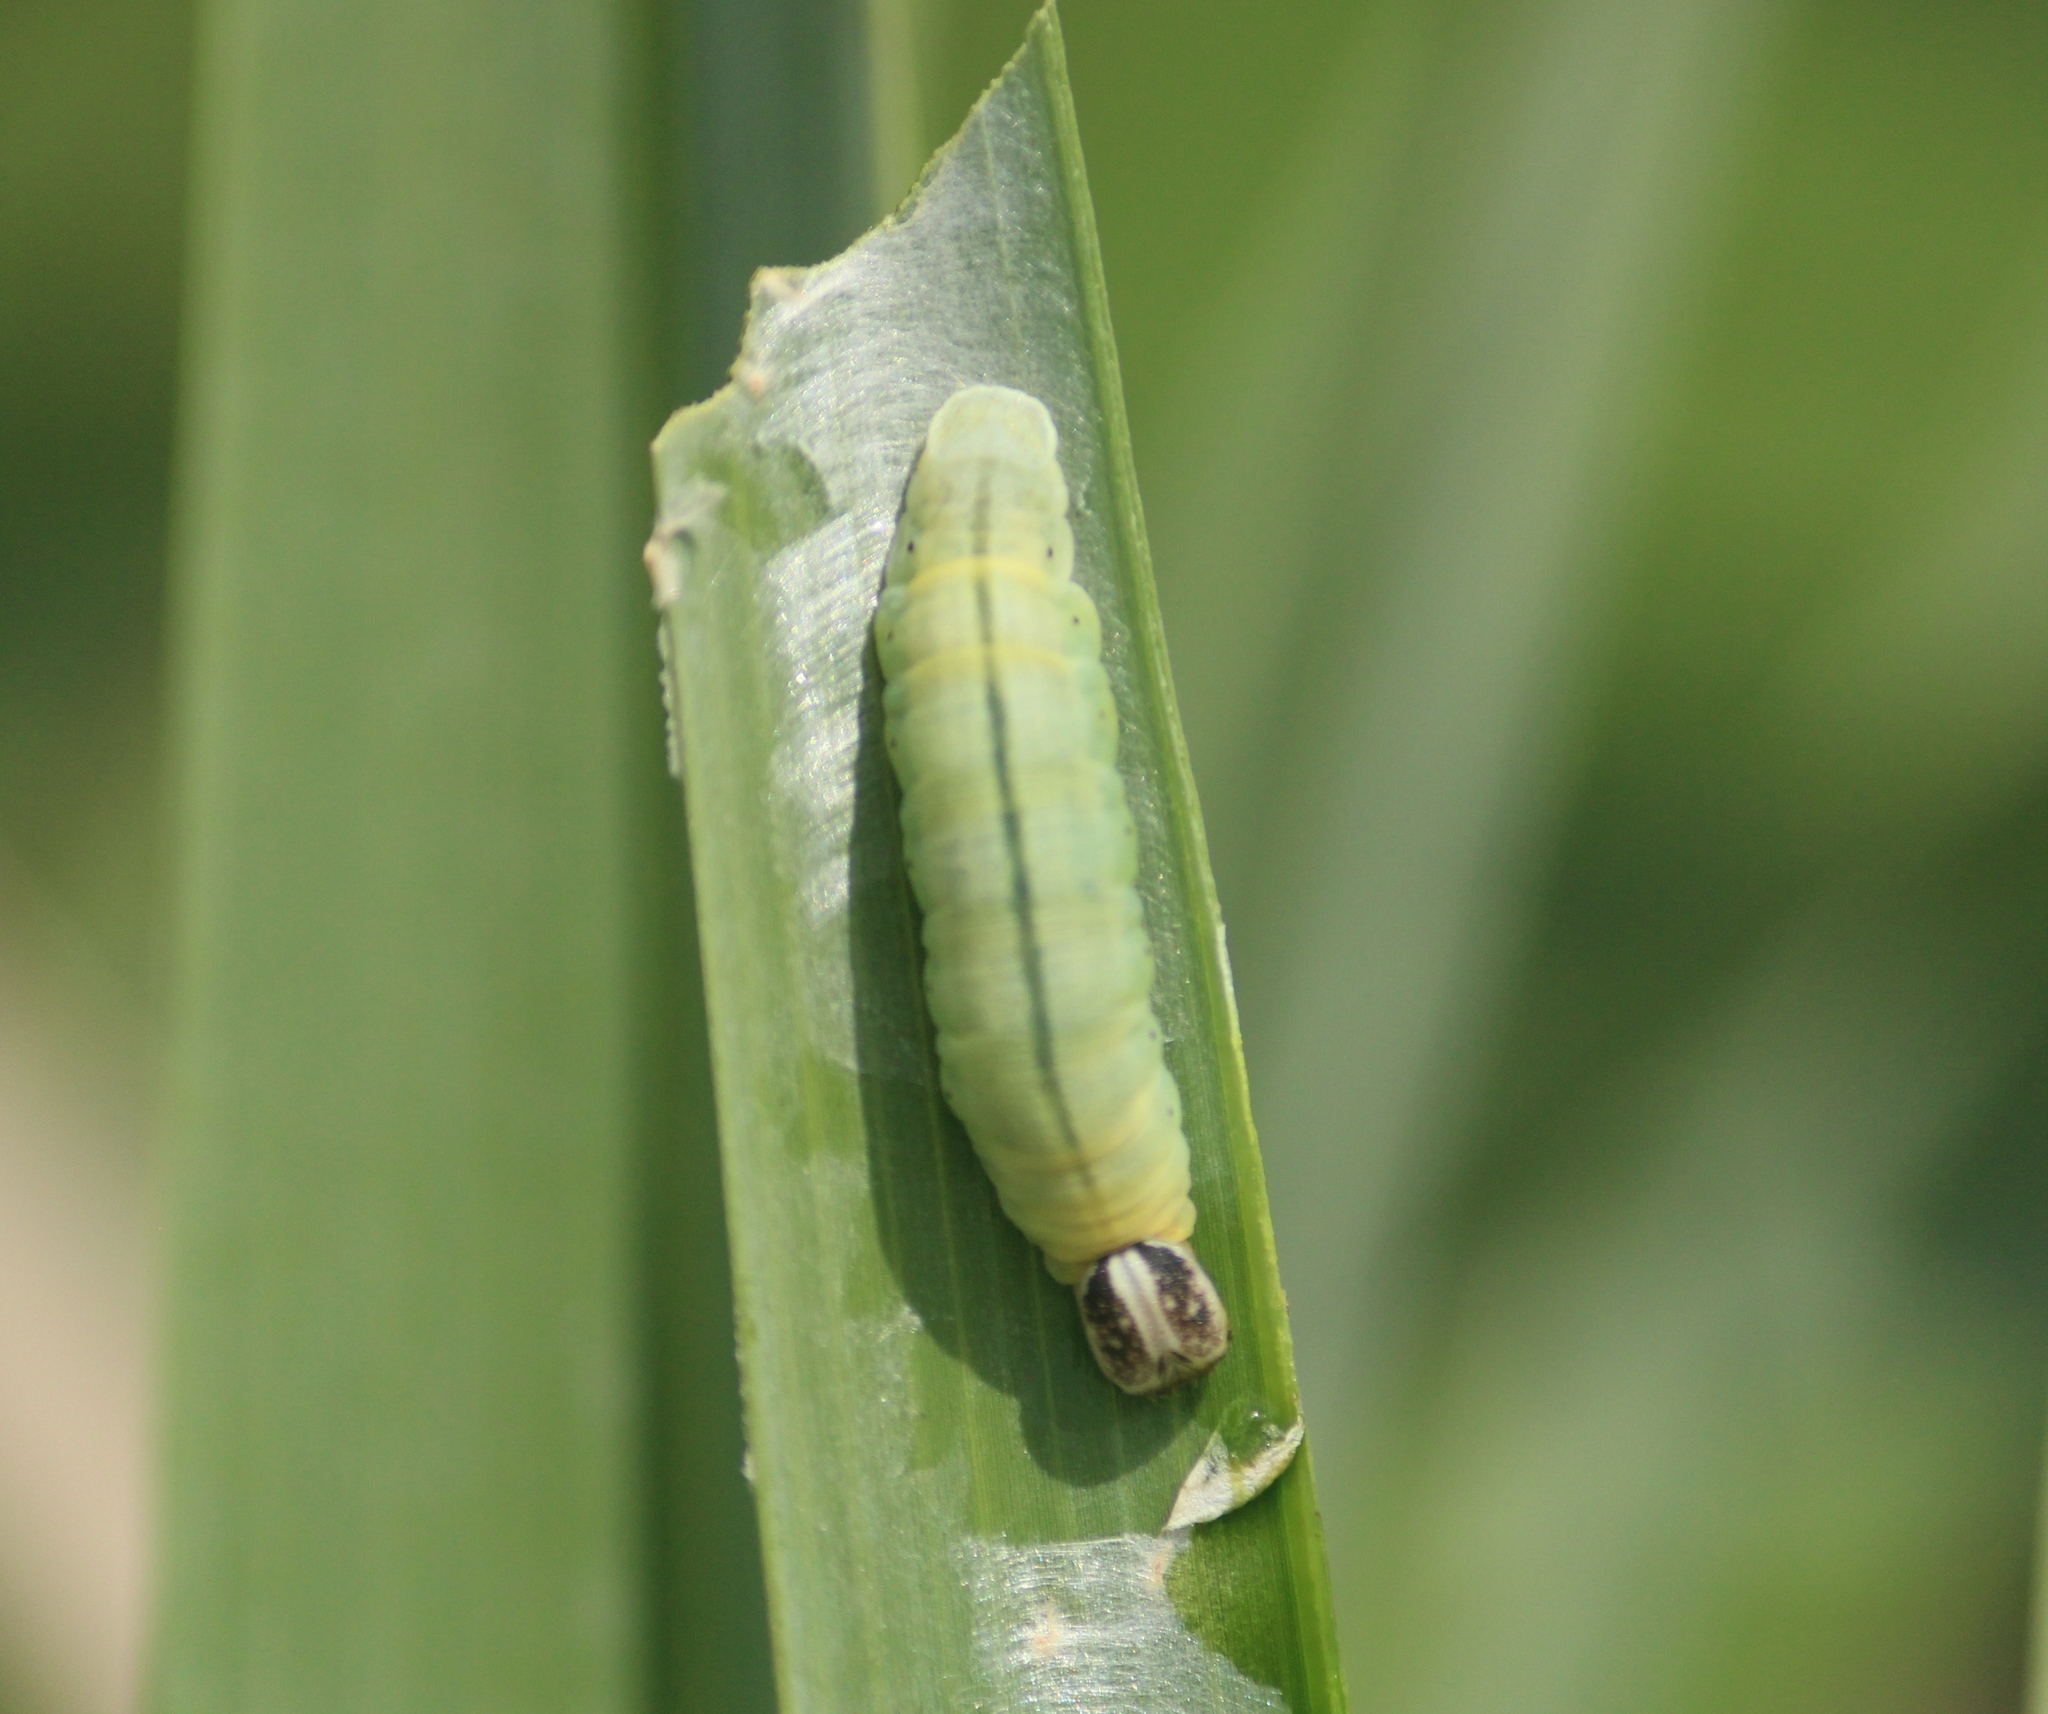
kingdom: Animalia
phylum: Arthropoda
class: Insecta
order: Lepidoptera
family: Hesperiidae
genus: Suastus
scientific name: Suastus gremius
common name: Indian palm bob
